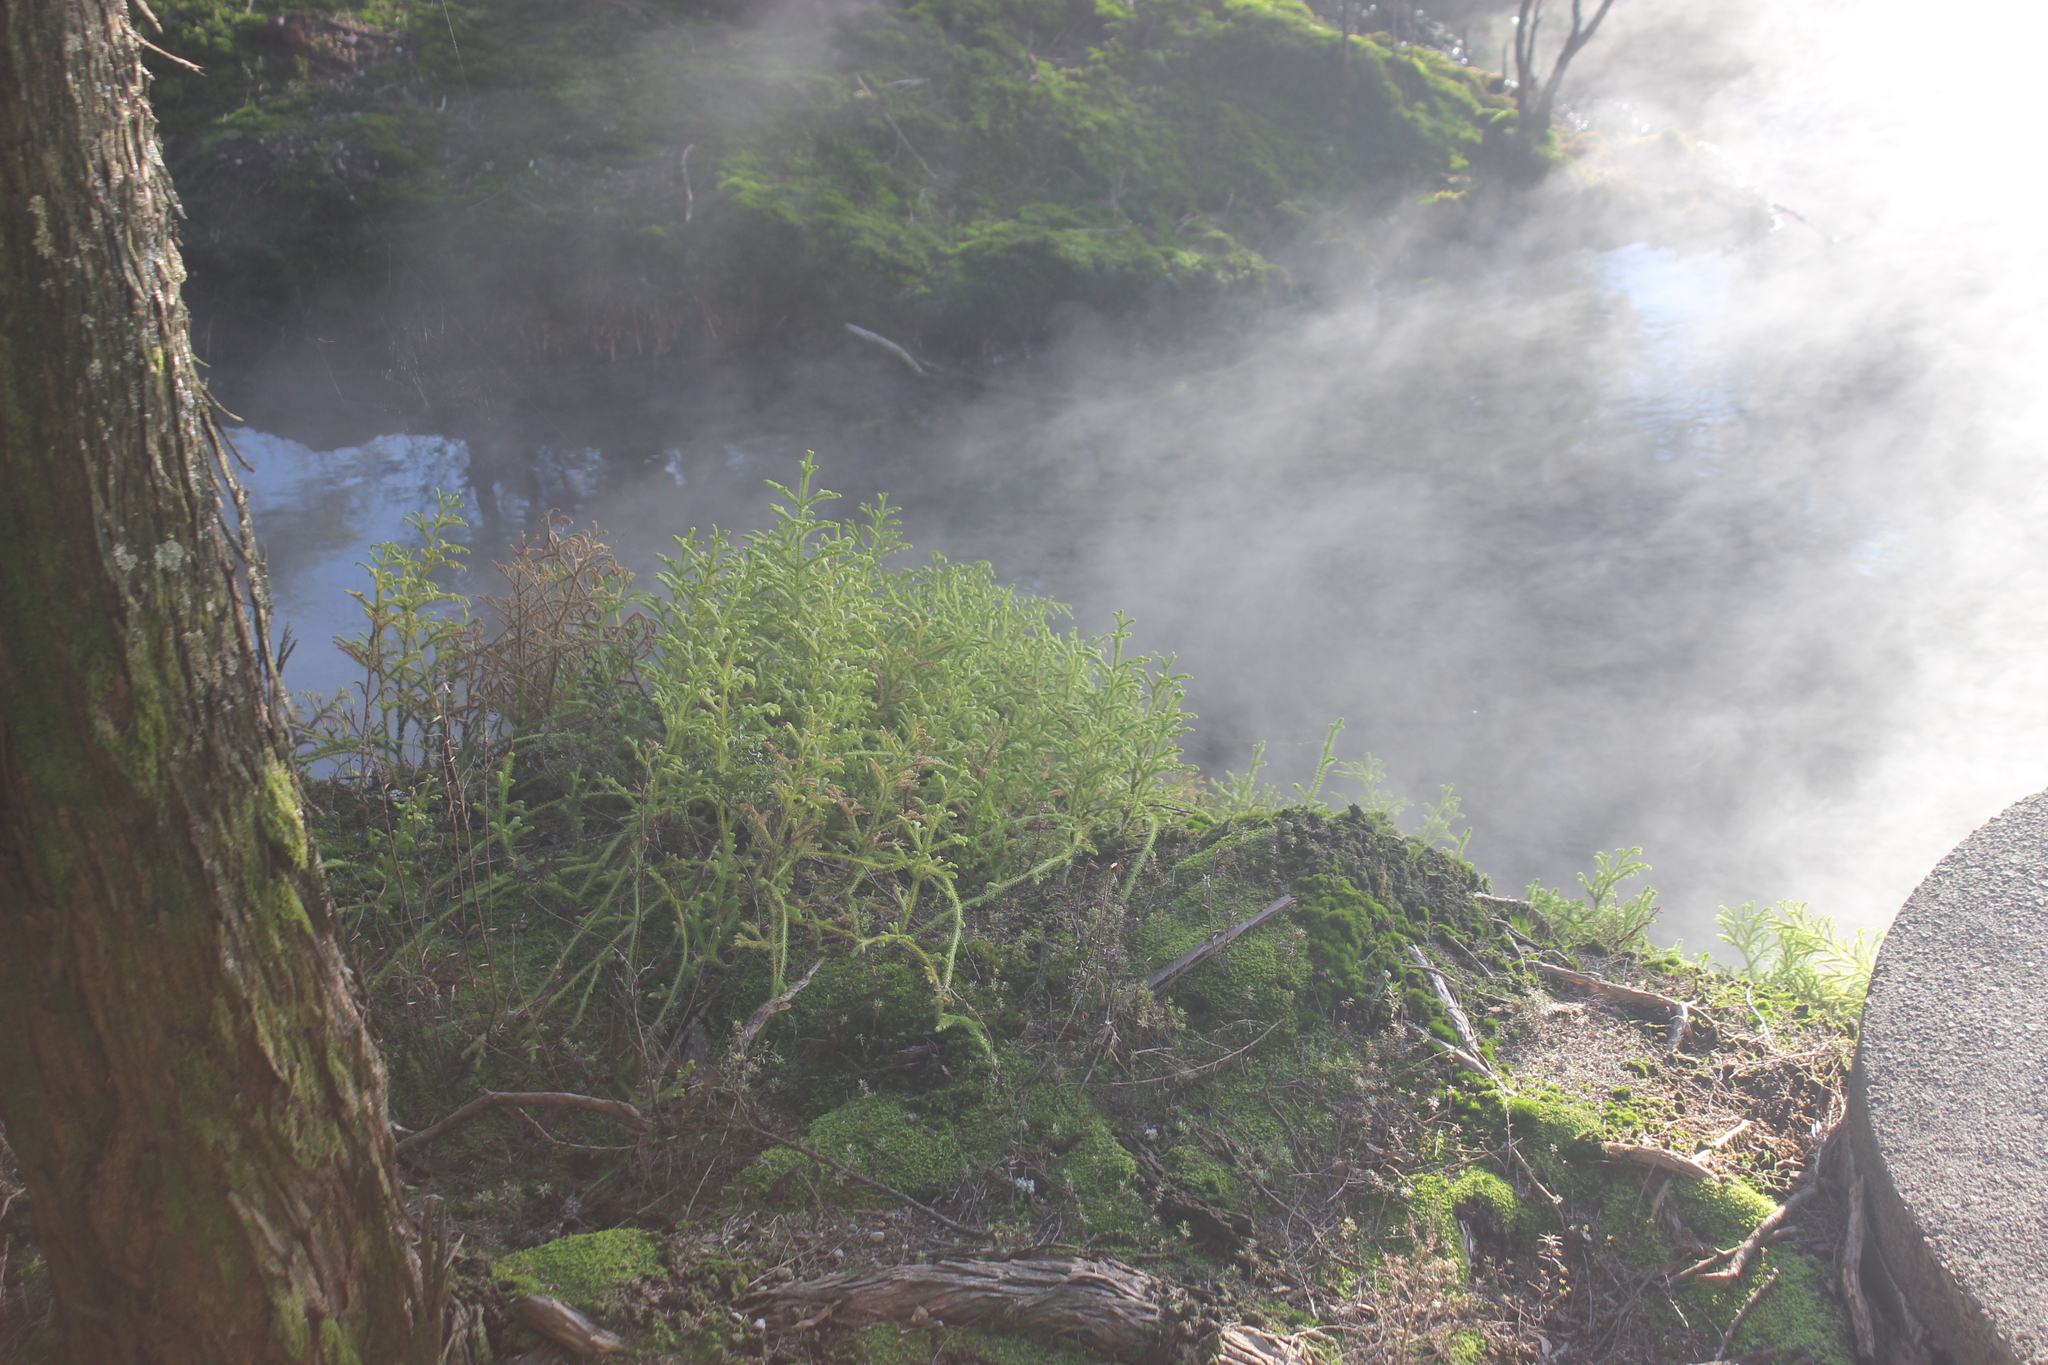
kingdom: Plantae
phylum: Tracheophyta
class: Lycopodiopsida
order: Lycopodiales
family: Lycopodiaceae
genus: Palhinhaea
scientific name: Palhinhaea cernua
